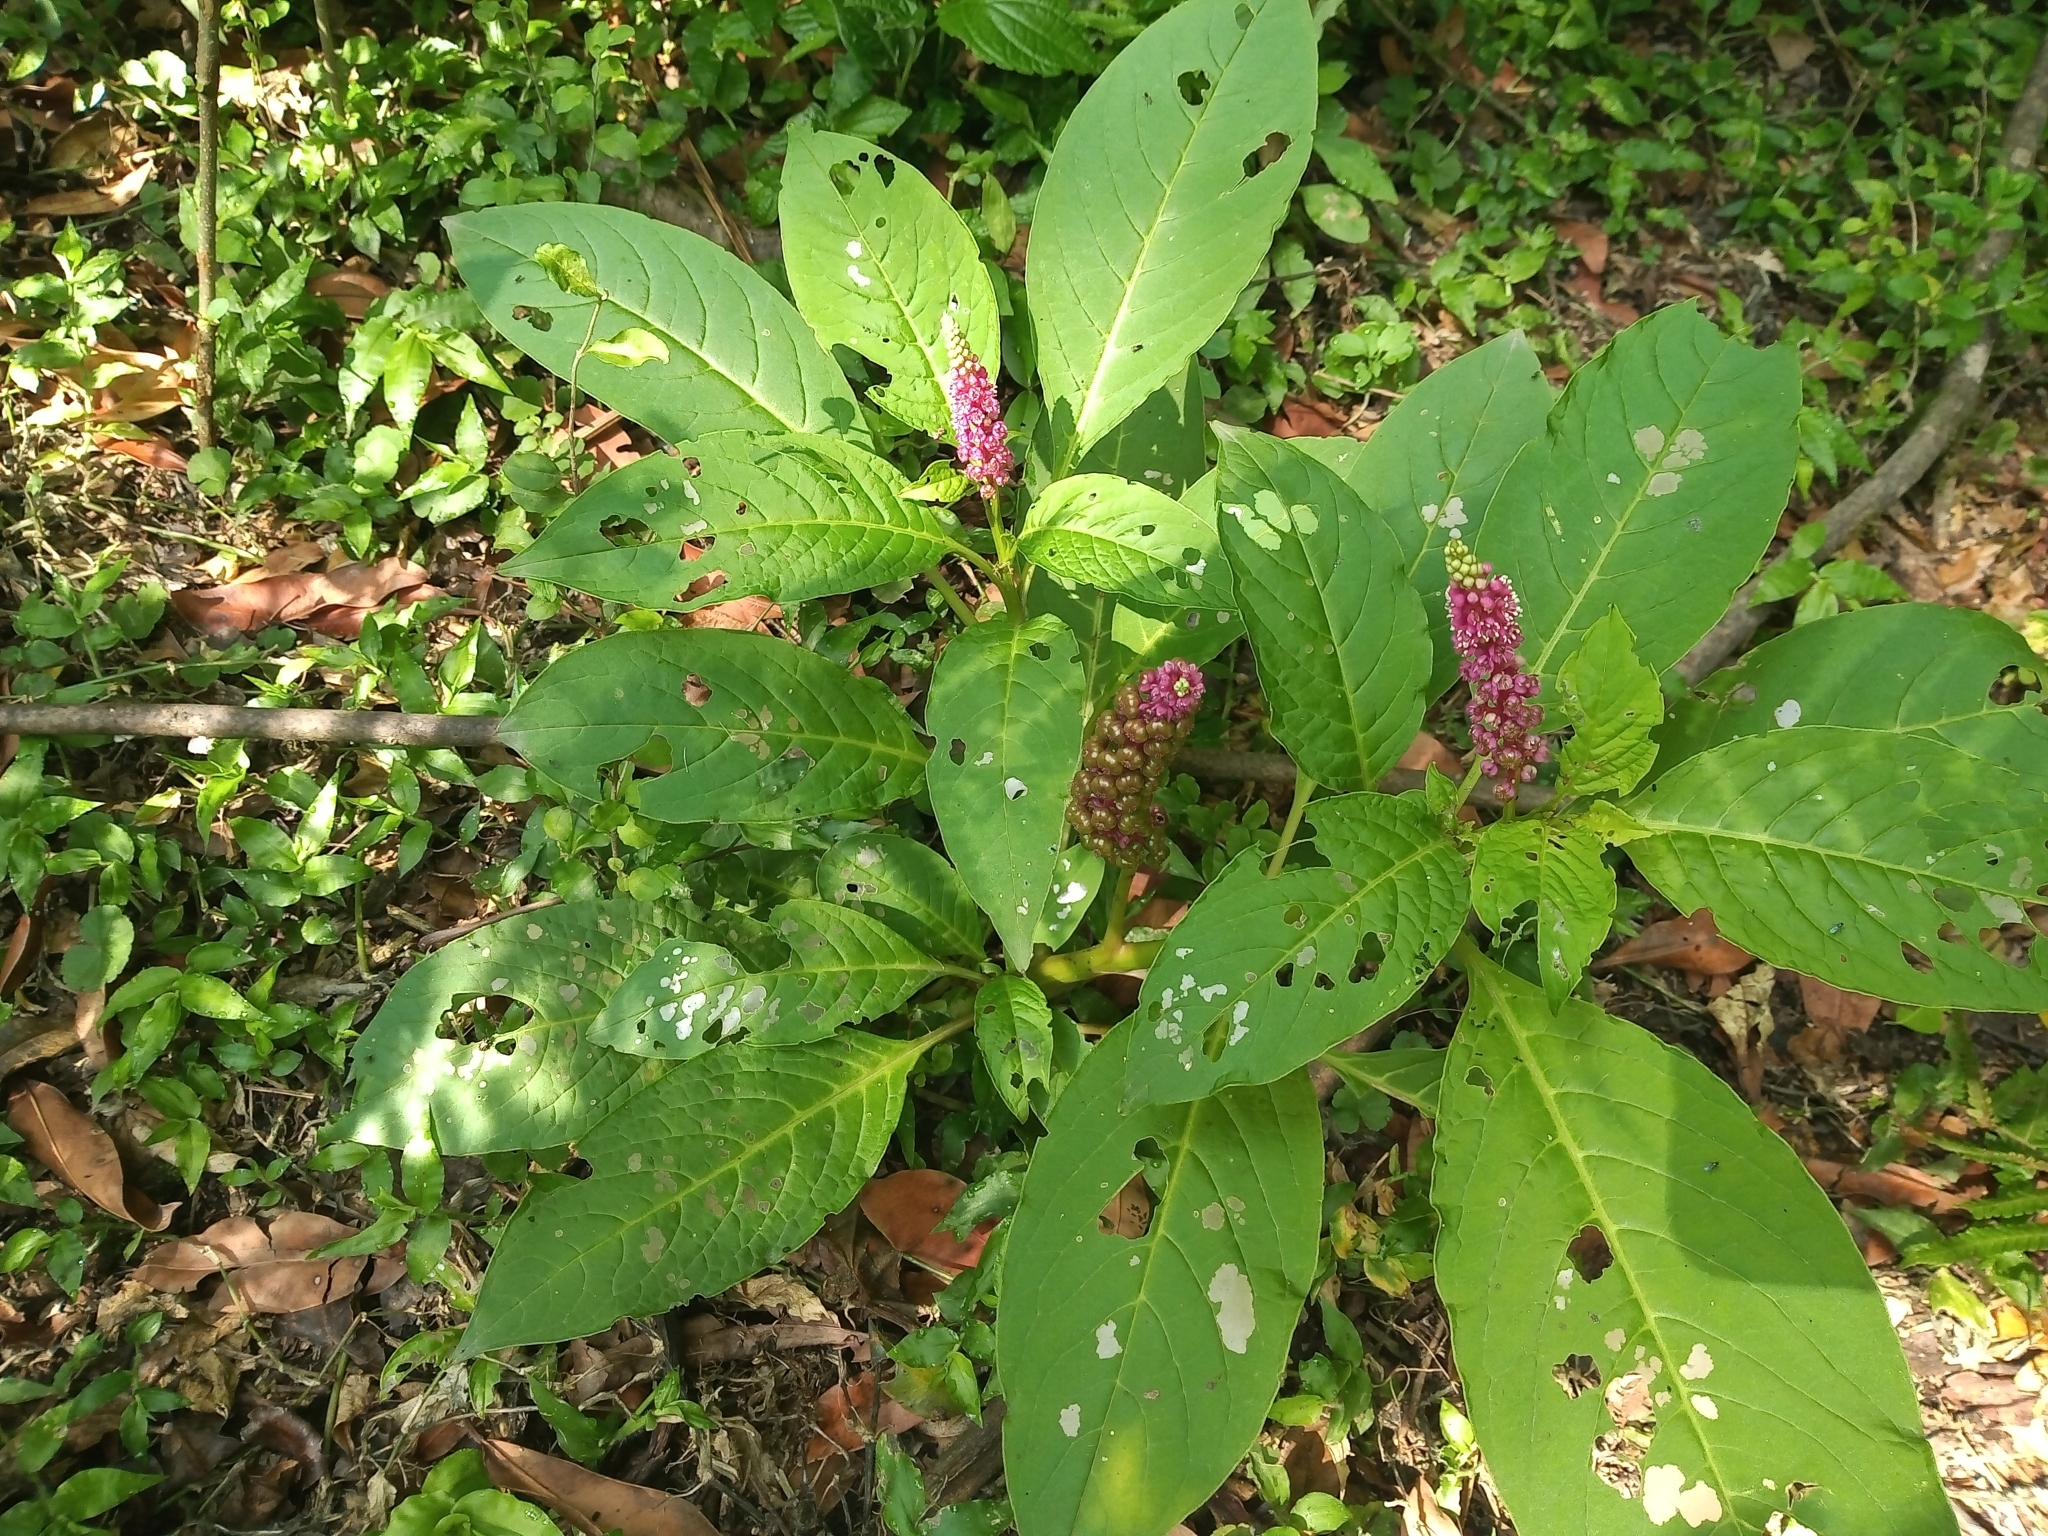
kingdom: Plantae
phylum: Tracheophyta
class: Magnoliopsida
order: Caryophyllales
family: Phytolaccaceae
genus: Phytolacca
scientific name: Phytolacca bogotensis
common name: Southern pokeweed
